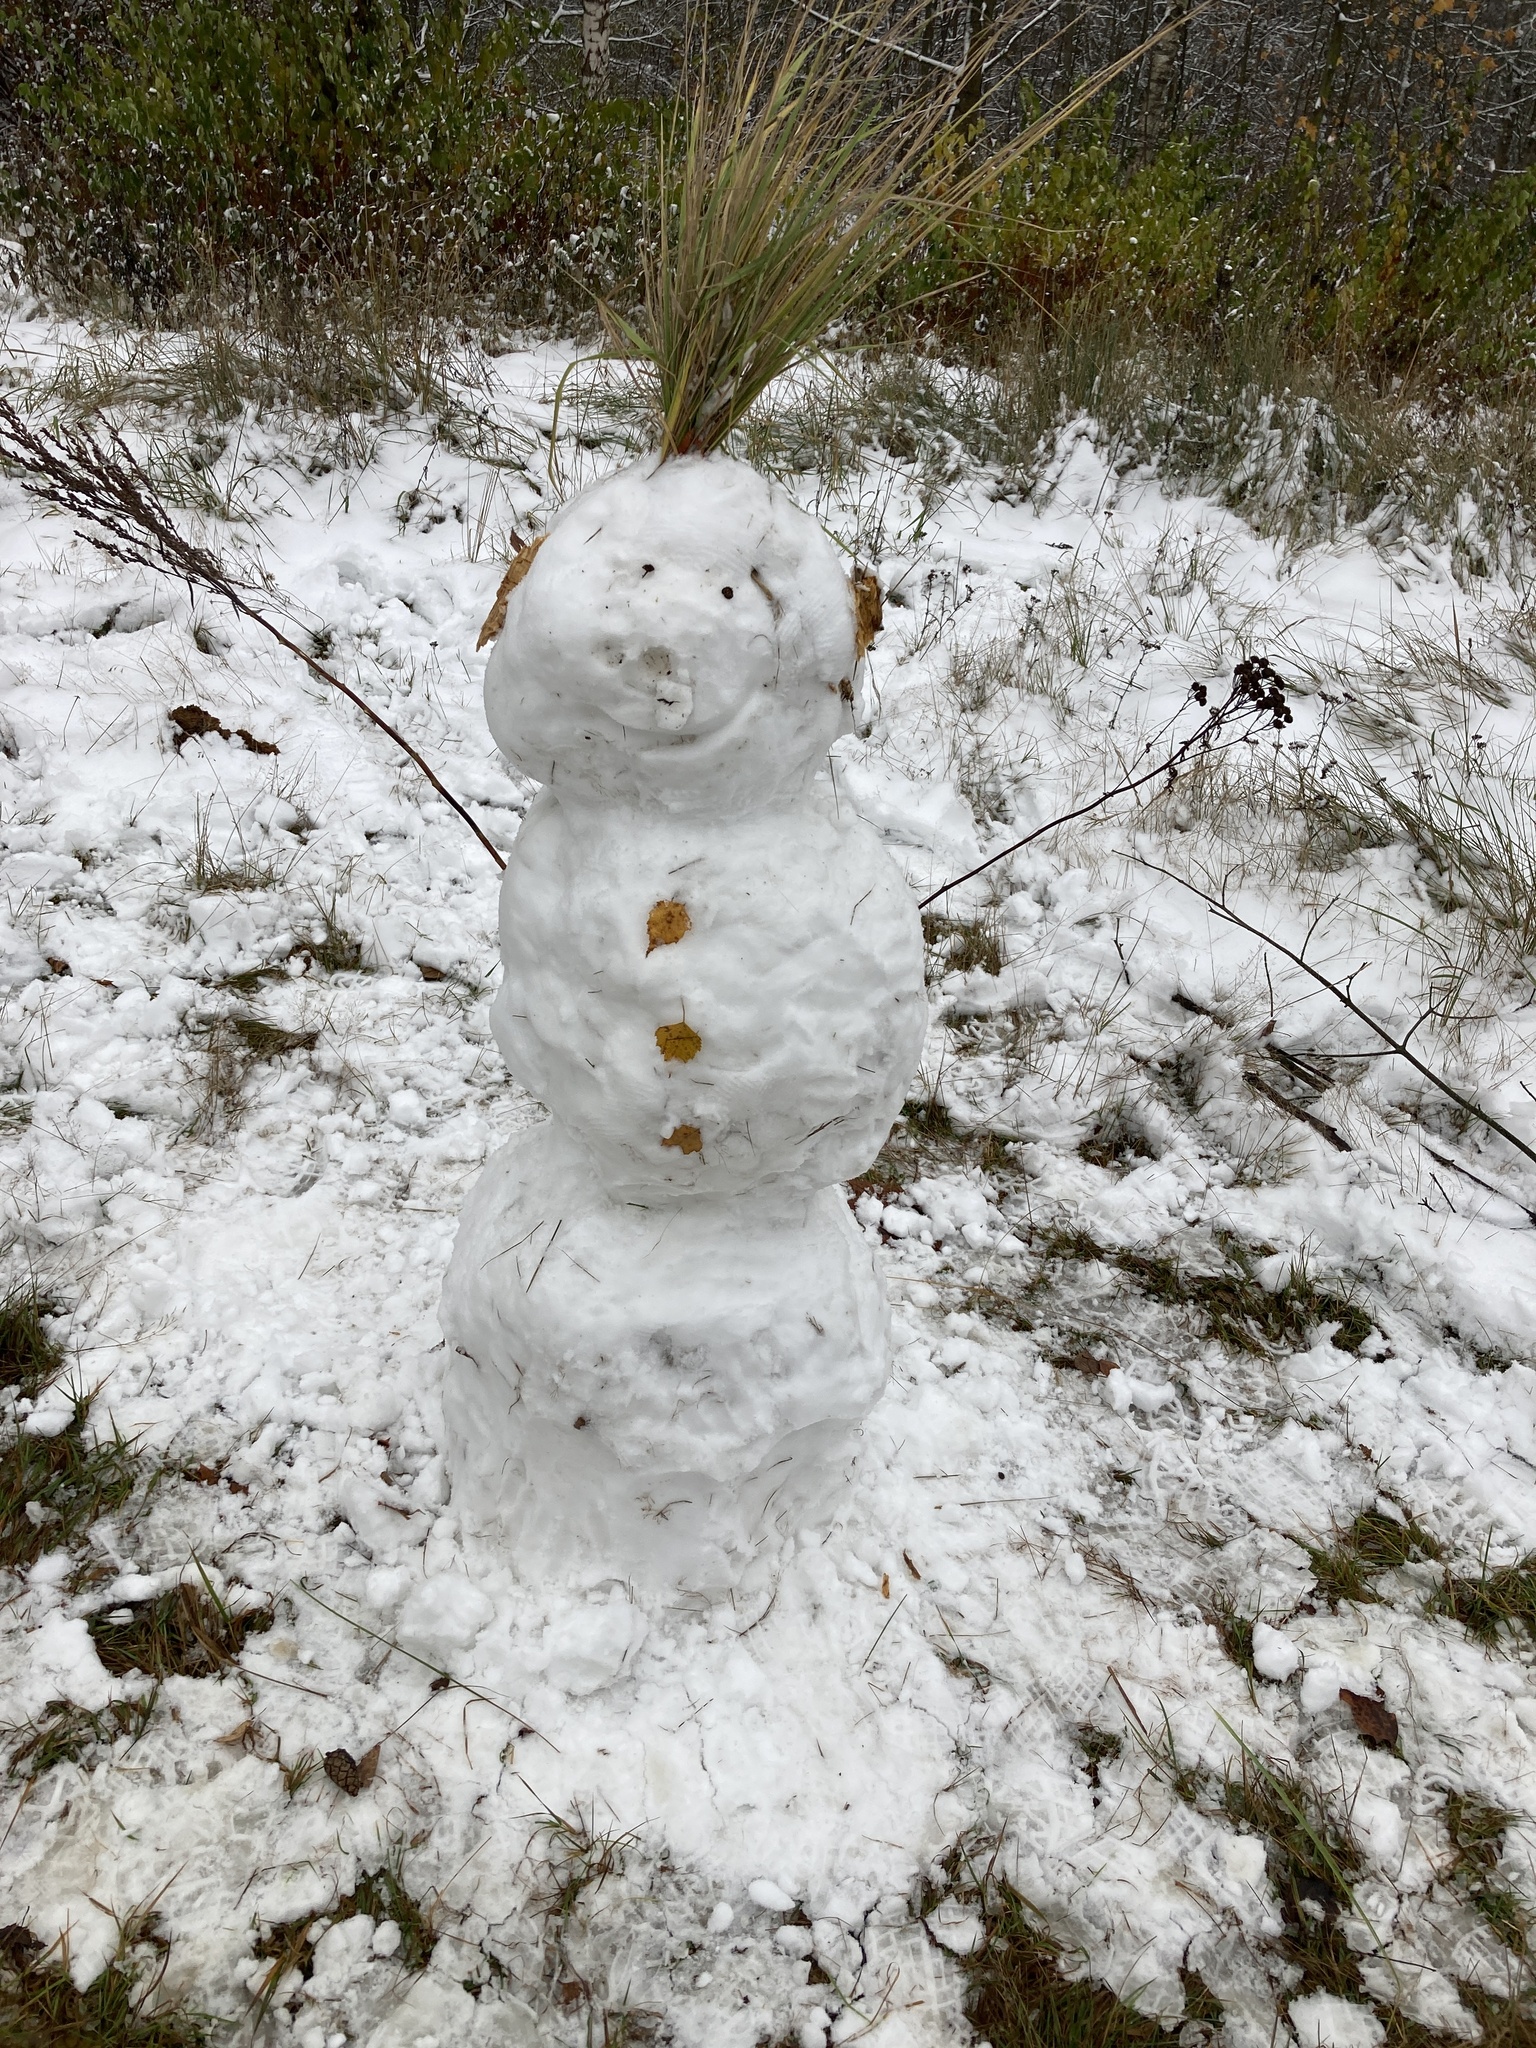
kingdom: Plantae
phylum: Tracheophyta
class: Magnoliopsida
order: Asterales
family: Asteraceae
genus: Tanacetum
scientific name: Tanacetum vulgare
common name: Common tansy
